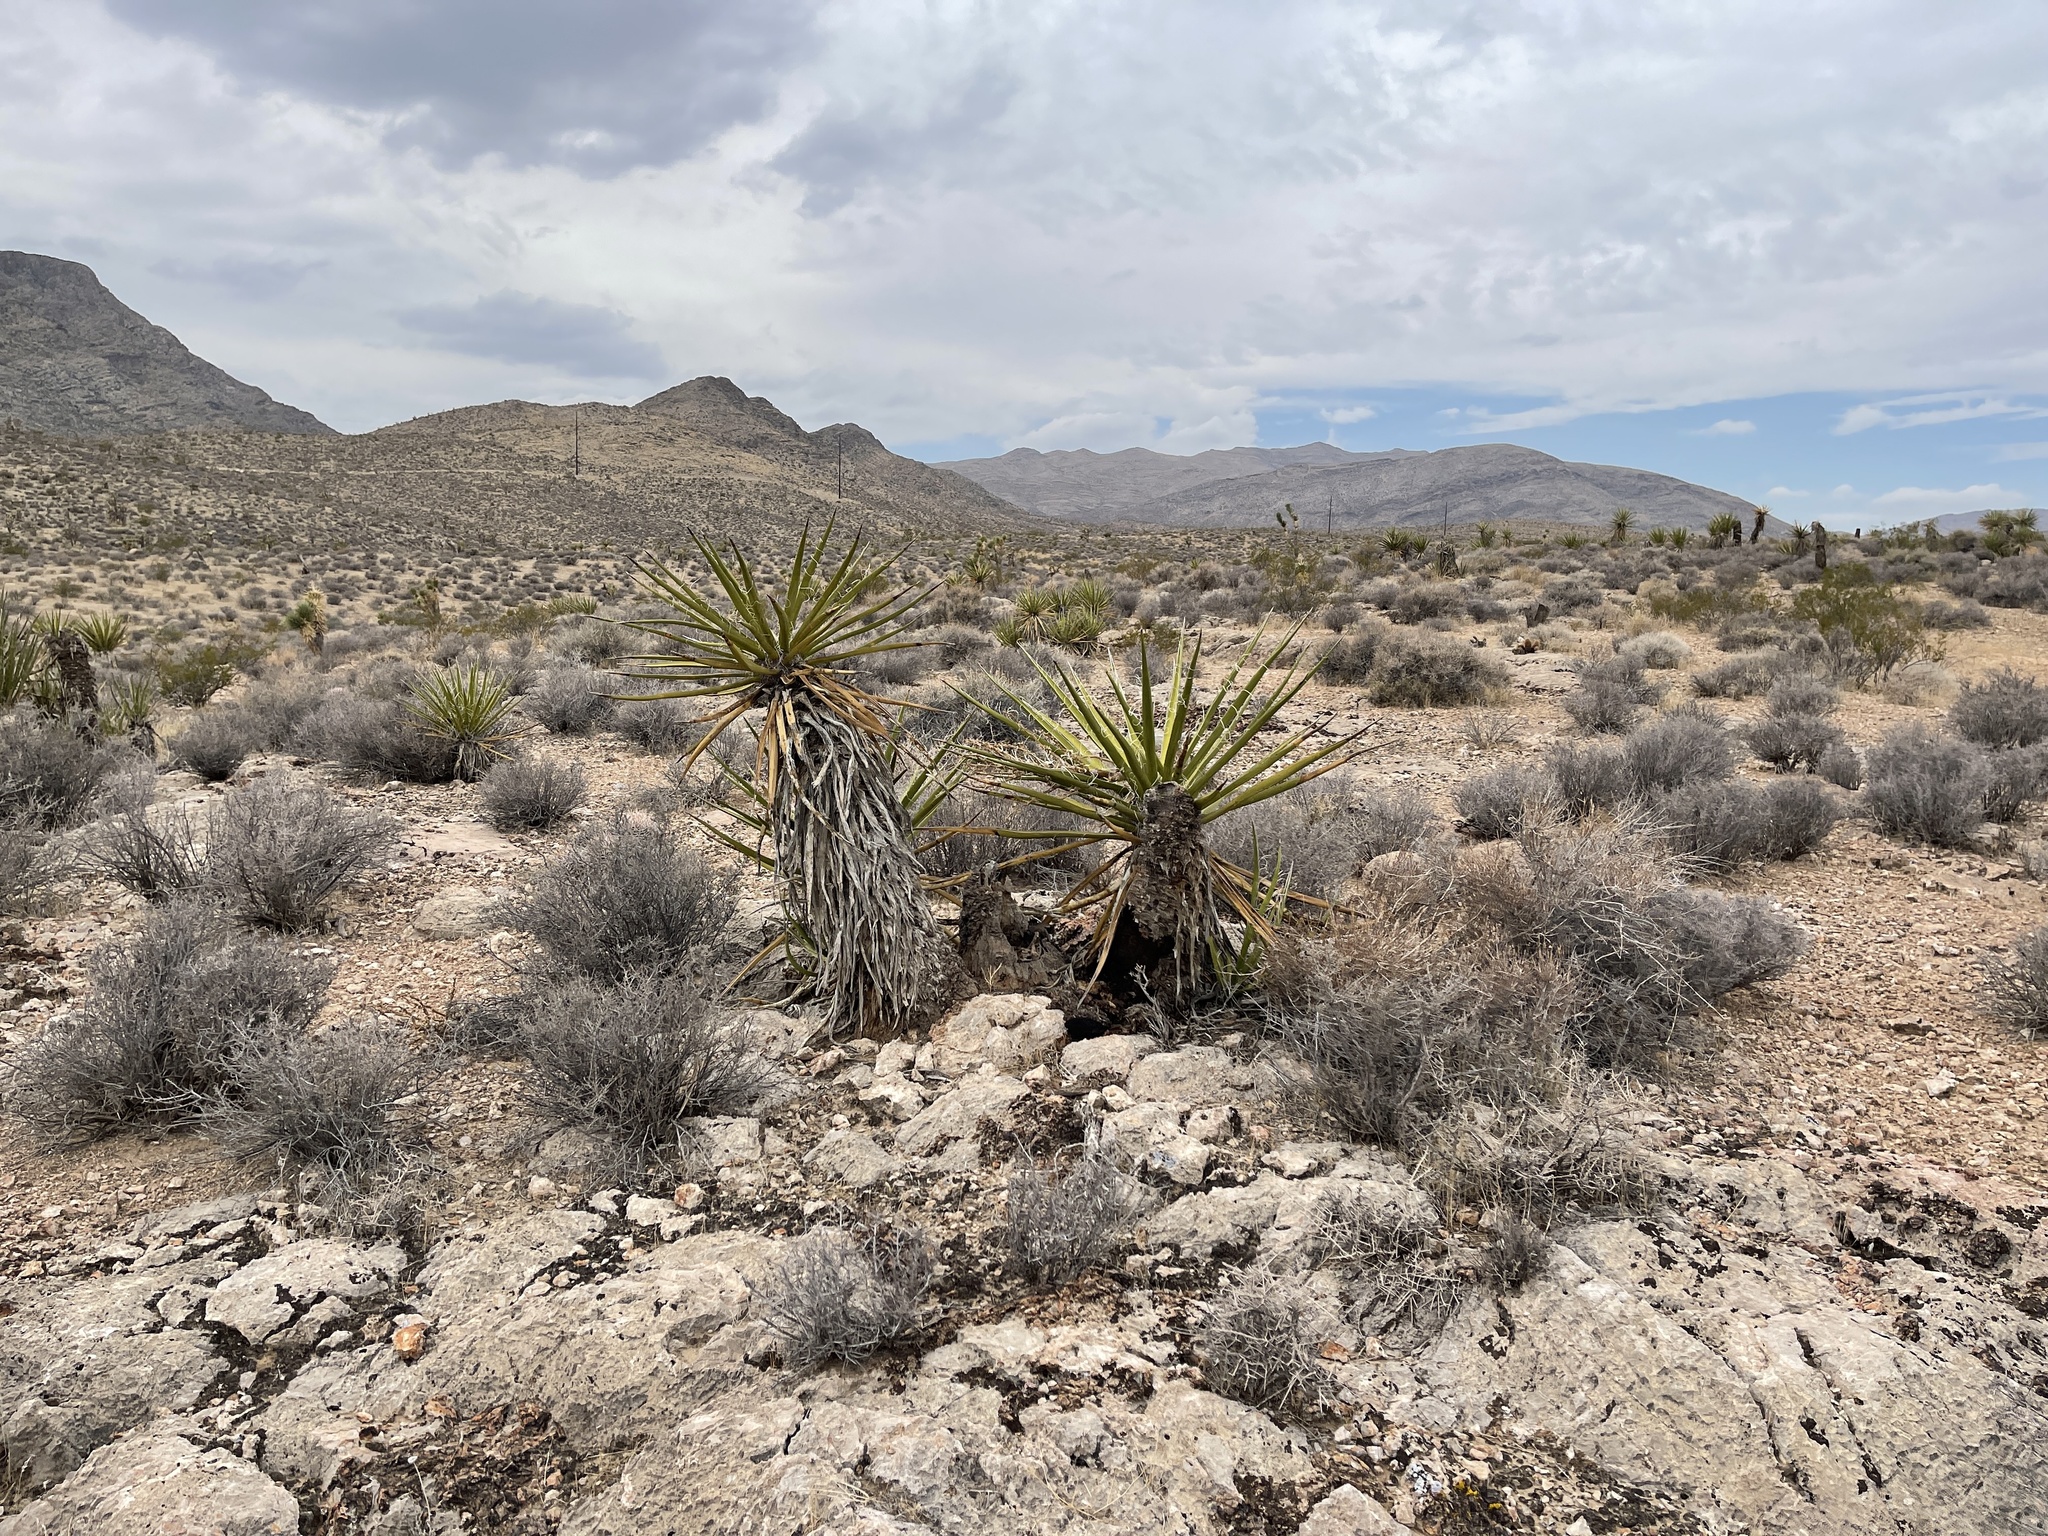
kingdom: Plantae
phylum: Tracheophyta
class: Liliopsida
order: Asparagales
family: Asparagaceae
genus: Yucca
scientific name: Yucca schidigera
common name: Mojave yucca
